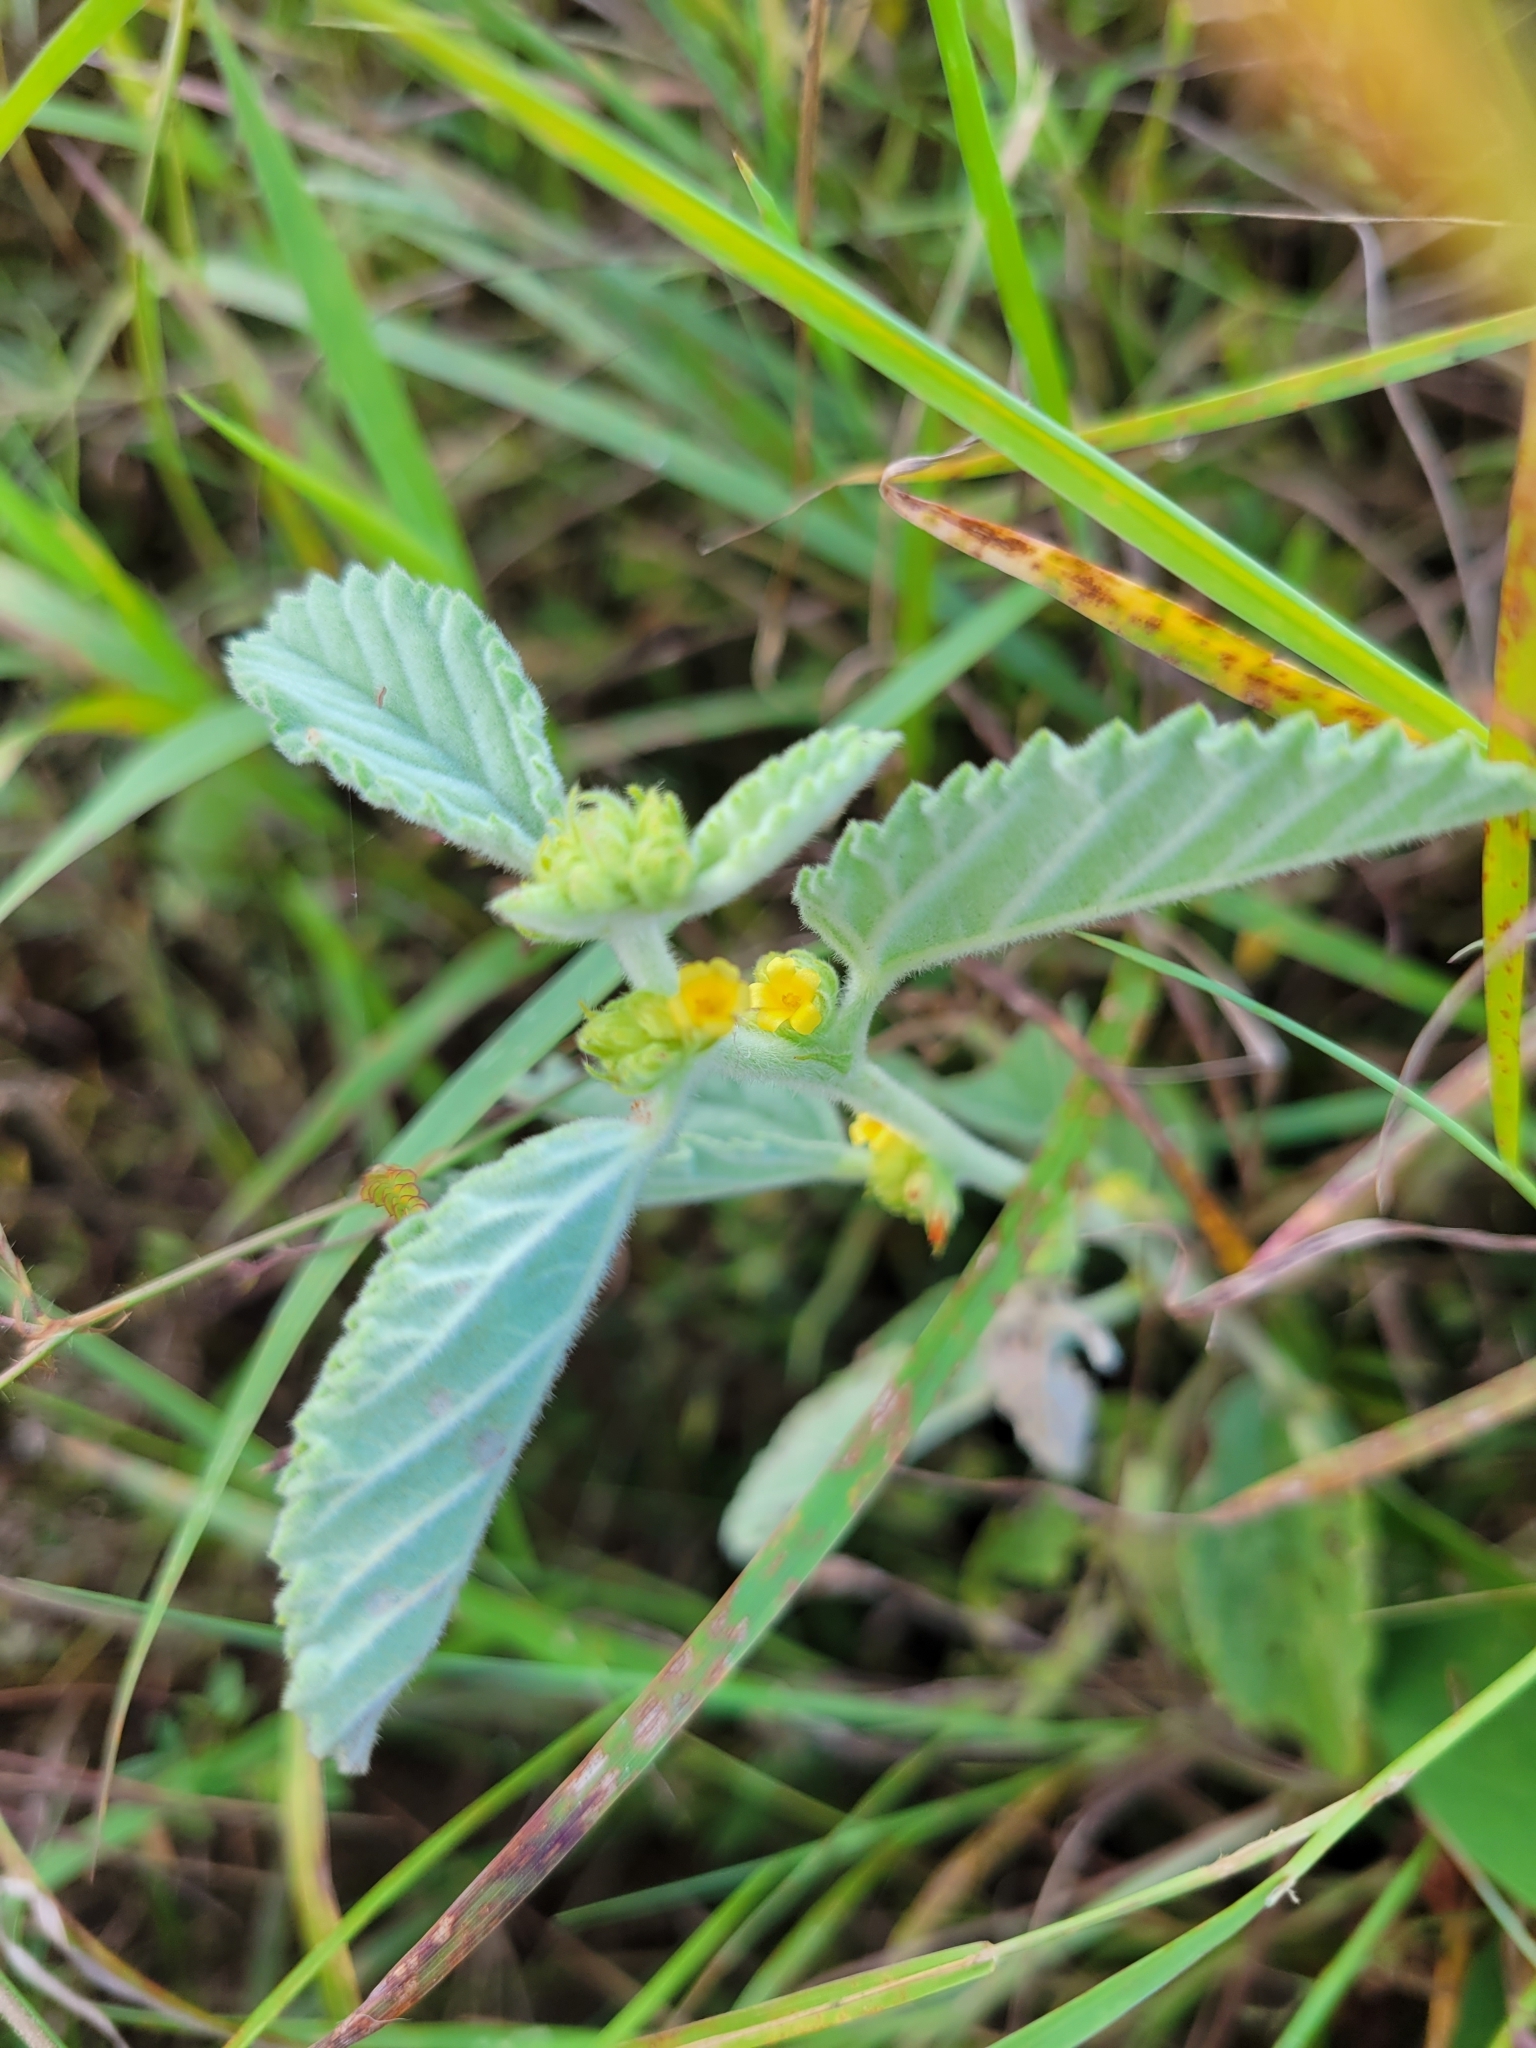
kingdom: Plantae
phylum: Tracheophyta
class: Magnoliopsida
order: Malvales
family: Malvaceae
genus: Waltheria
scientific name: Waltheria indica
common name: Leather-coat
